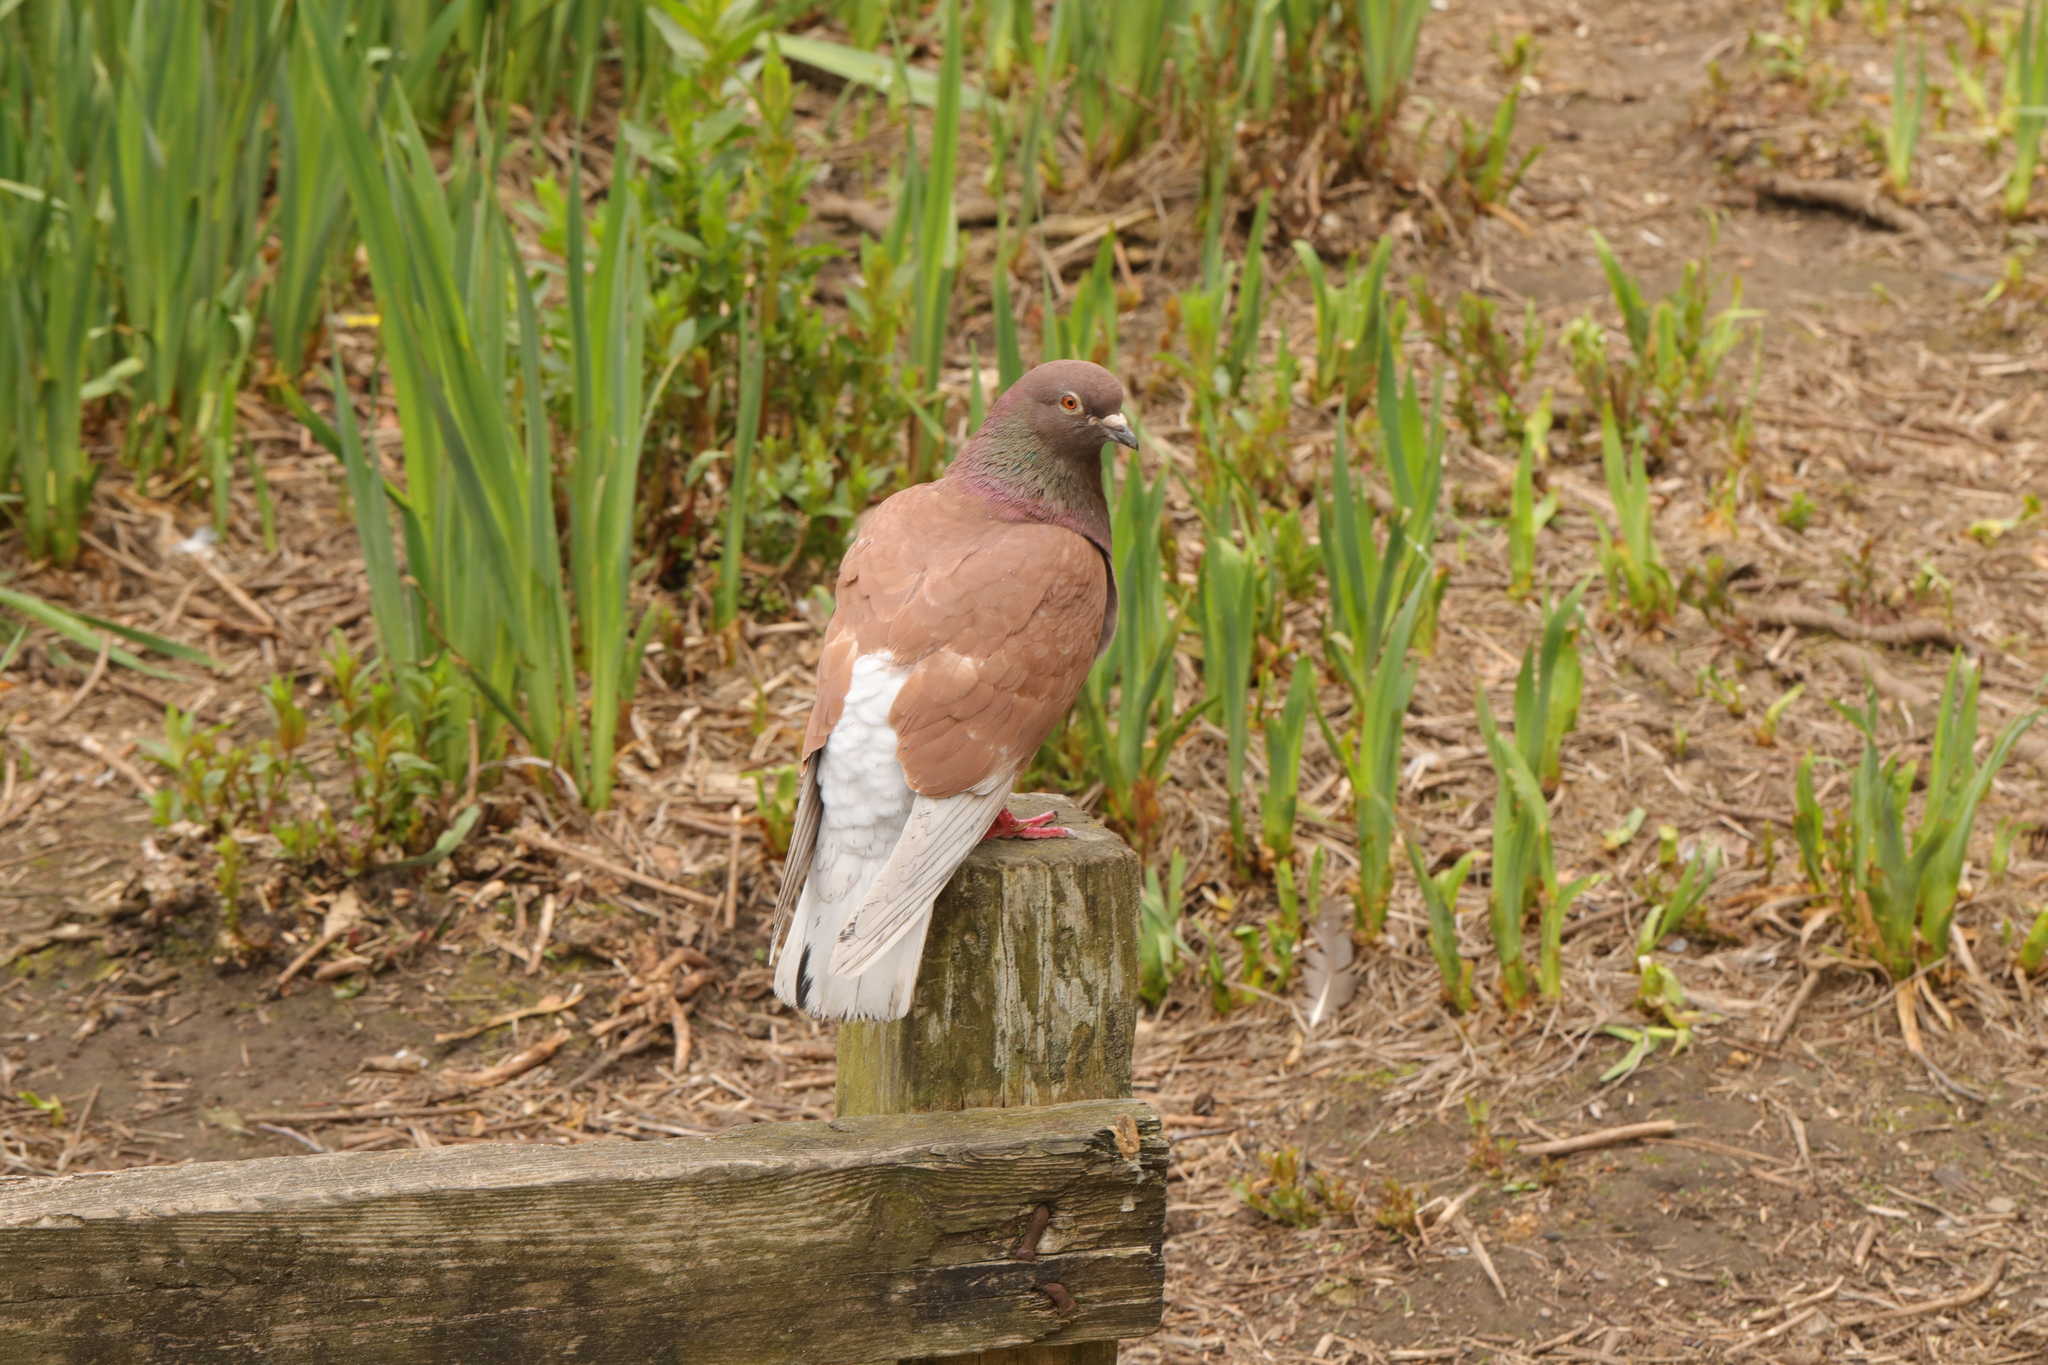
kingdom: Animalia
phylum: Chordata
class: Aves
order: Columbiformes
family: Columbidae
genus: Columba
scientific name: Columba livia
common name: Rock pigeon
